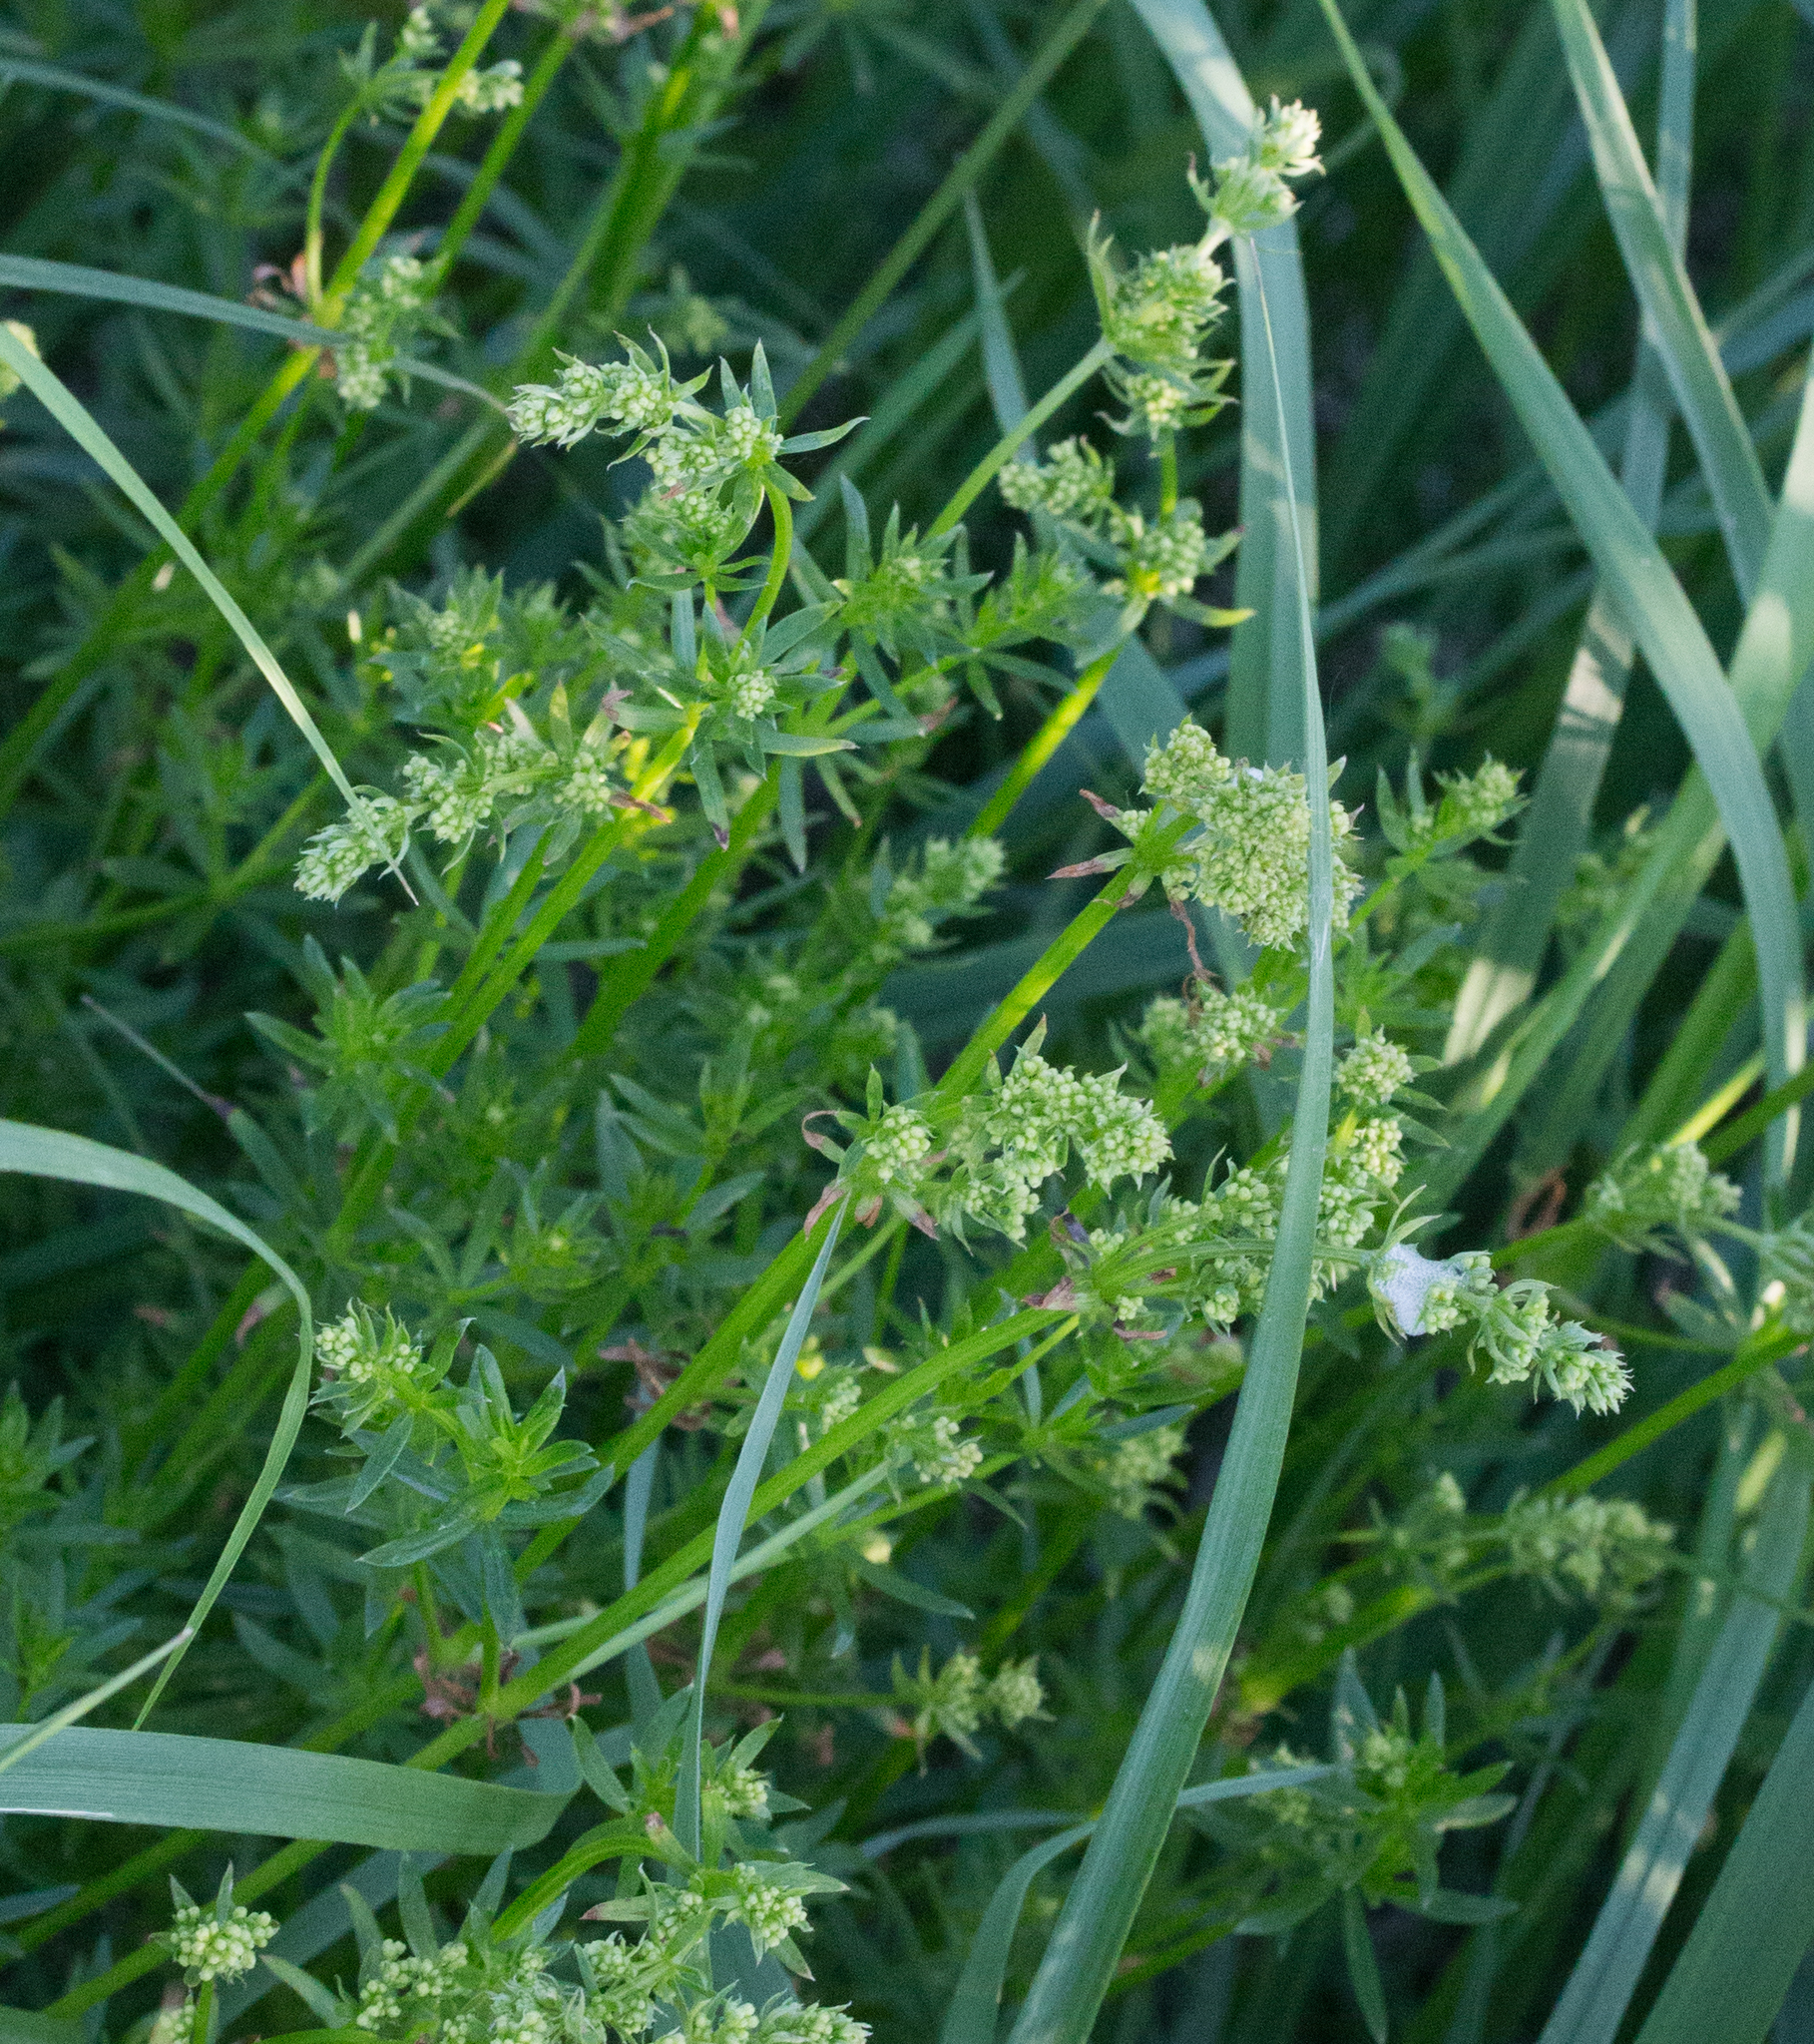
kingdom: Plantae
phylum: Tracheophyta
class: Magnoliopsida
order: Gentianales
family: Rubiaceae
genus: Galium
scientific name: Galium mollugo
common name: Hedge bedstraw
